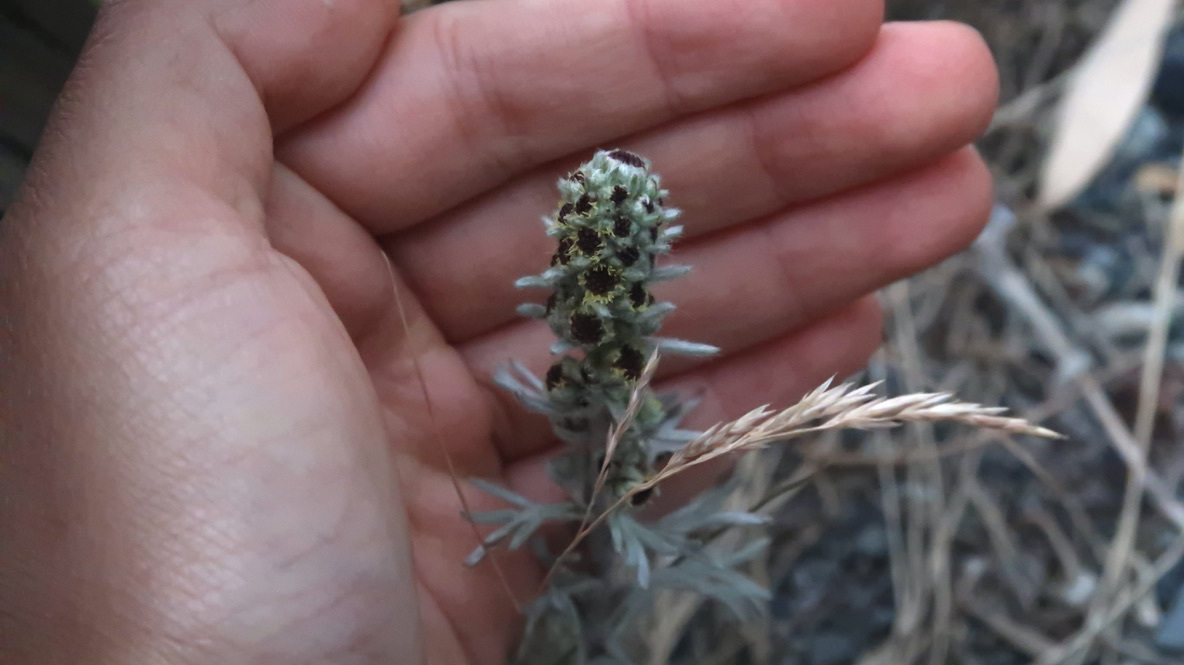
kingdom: Plantae
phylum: Tracheophyta
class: Magnoliopsida
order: Asterales
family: Asteraceae
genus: Artemisia
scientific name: Artemisia furcata
